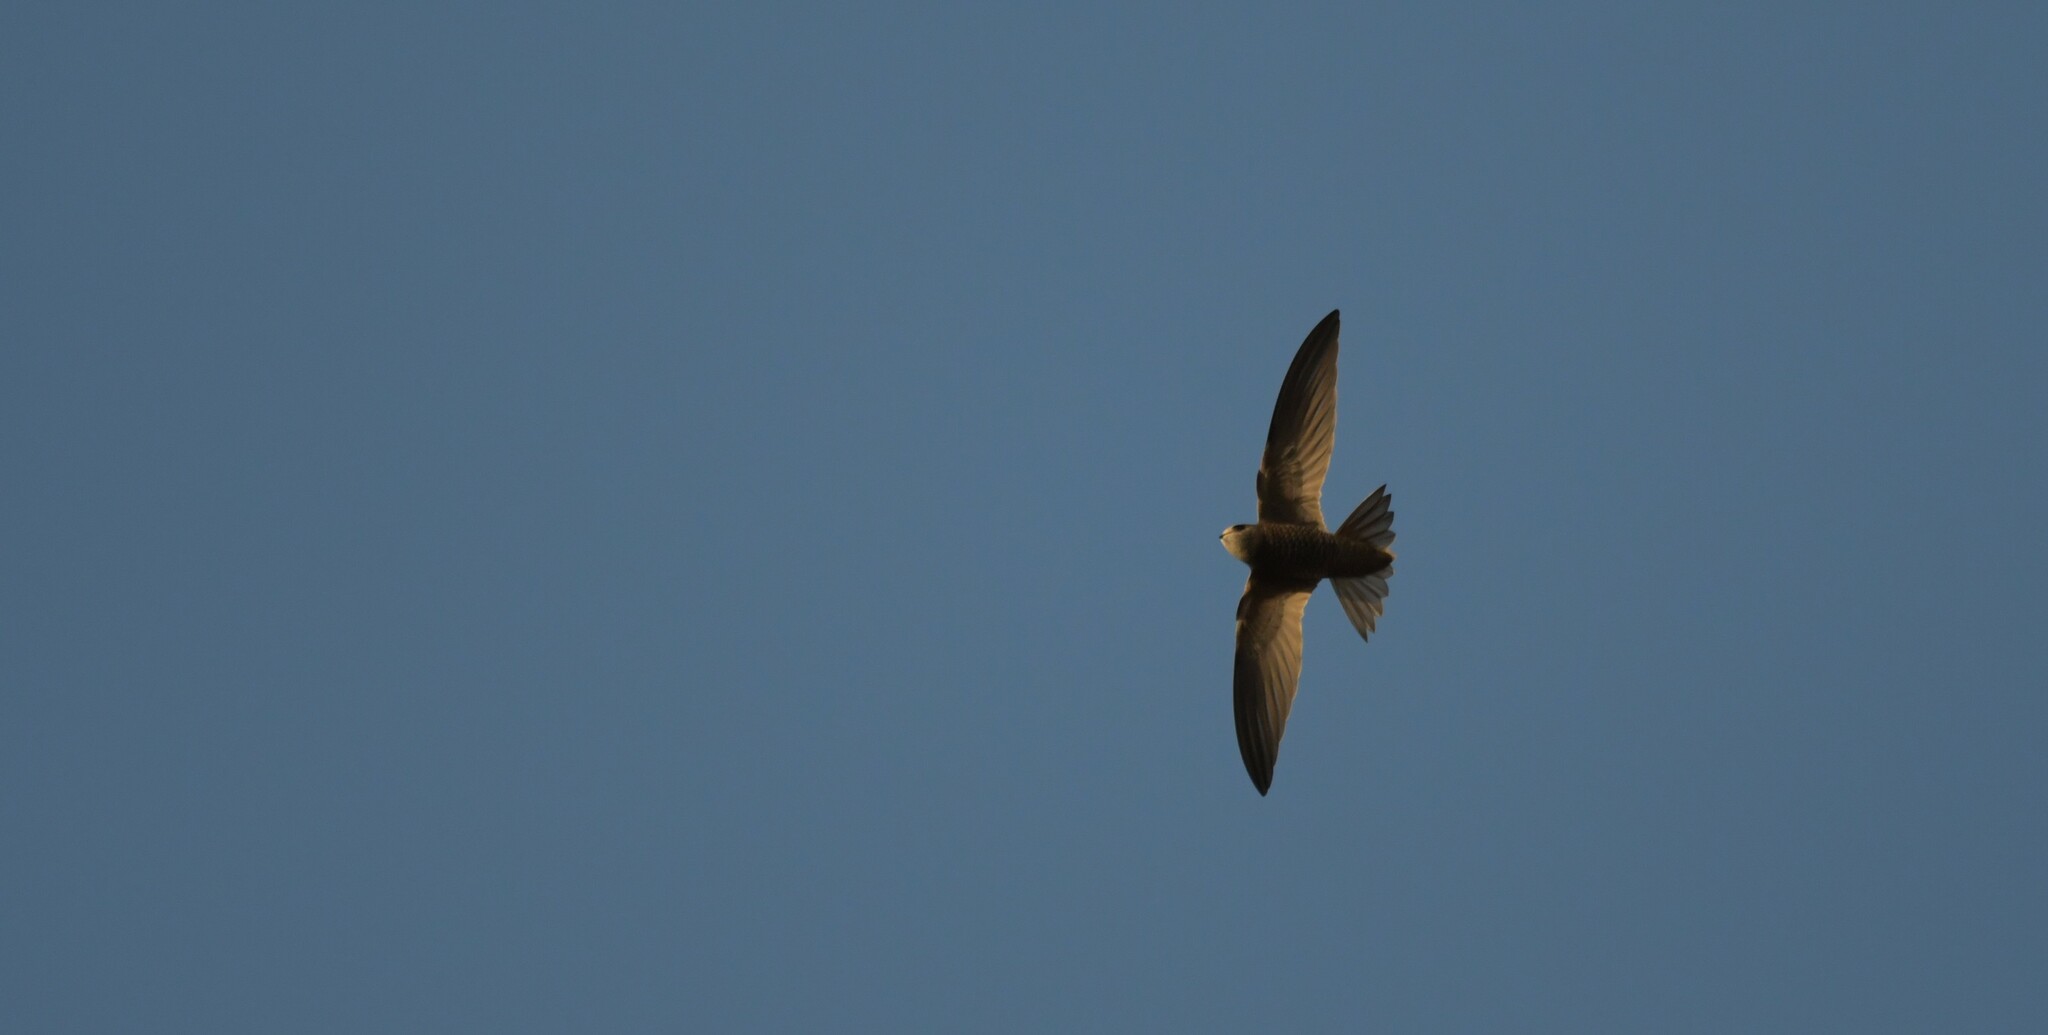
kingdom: Animalia
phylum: Chordata
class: Aves
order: Apodiformes
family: Apodidae
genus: Apus
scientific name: Apus pallidus
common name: Pallid swift
